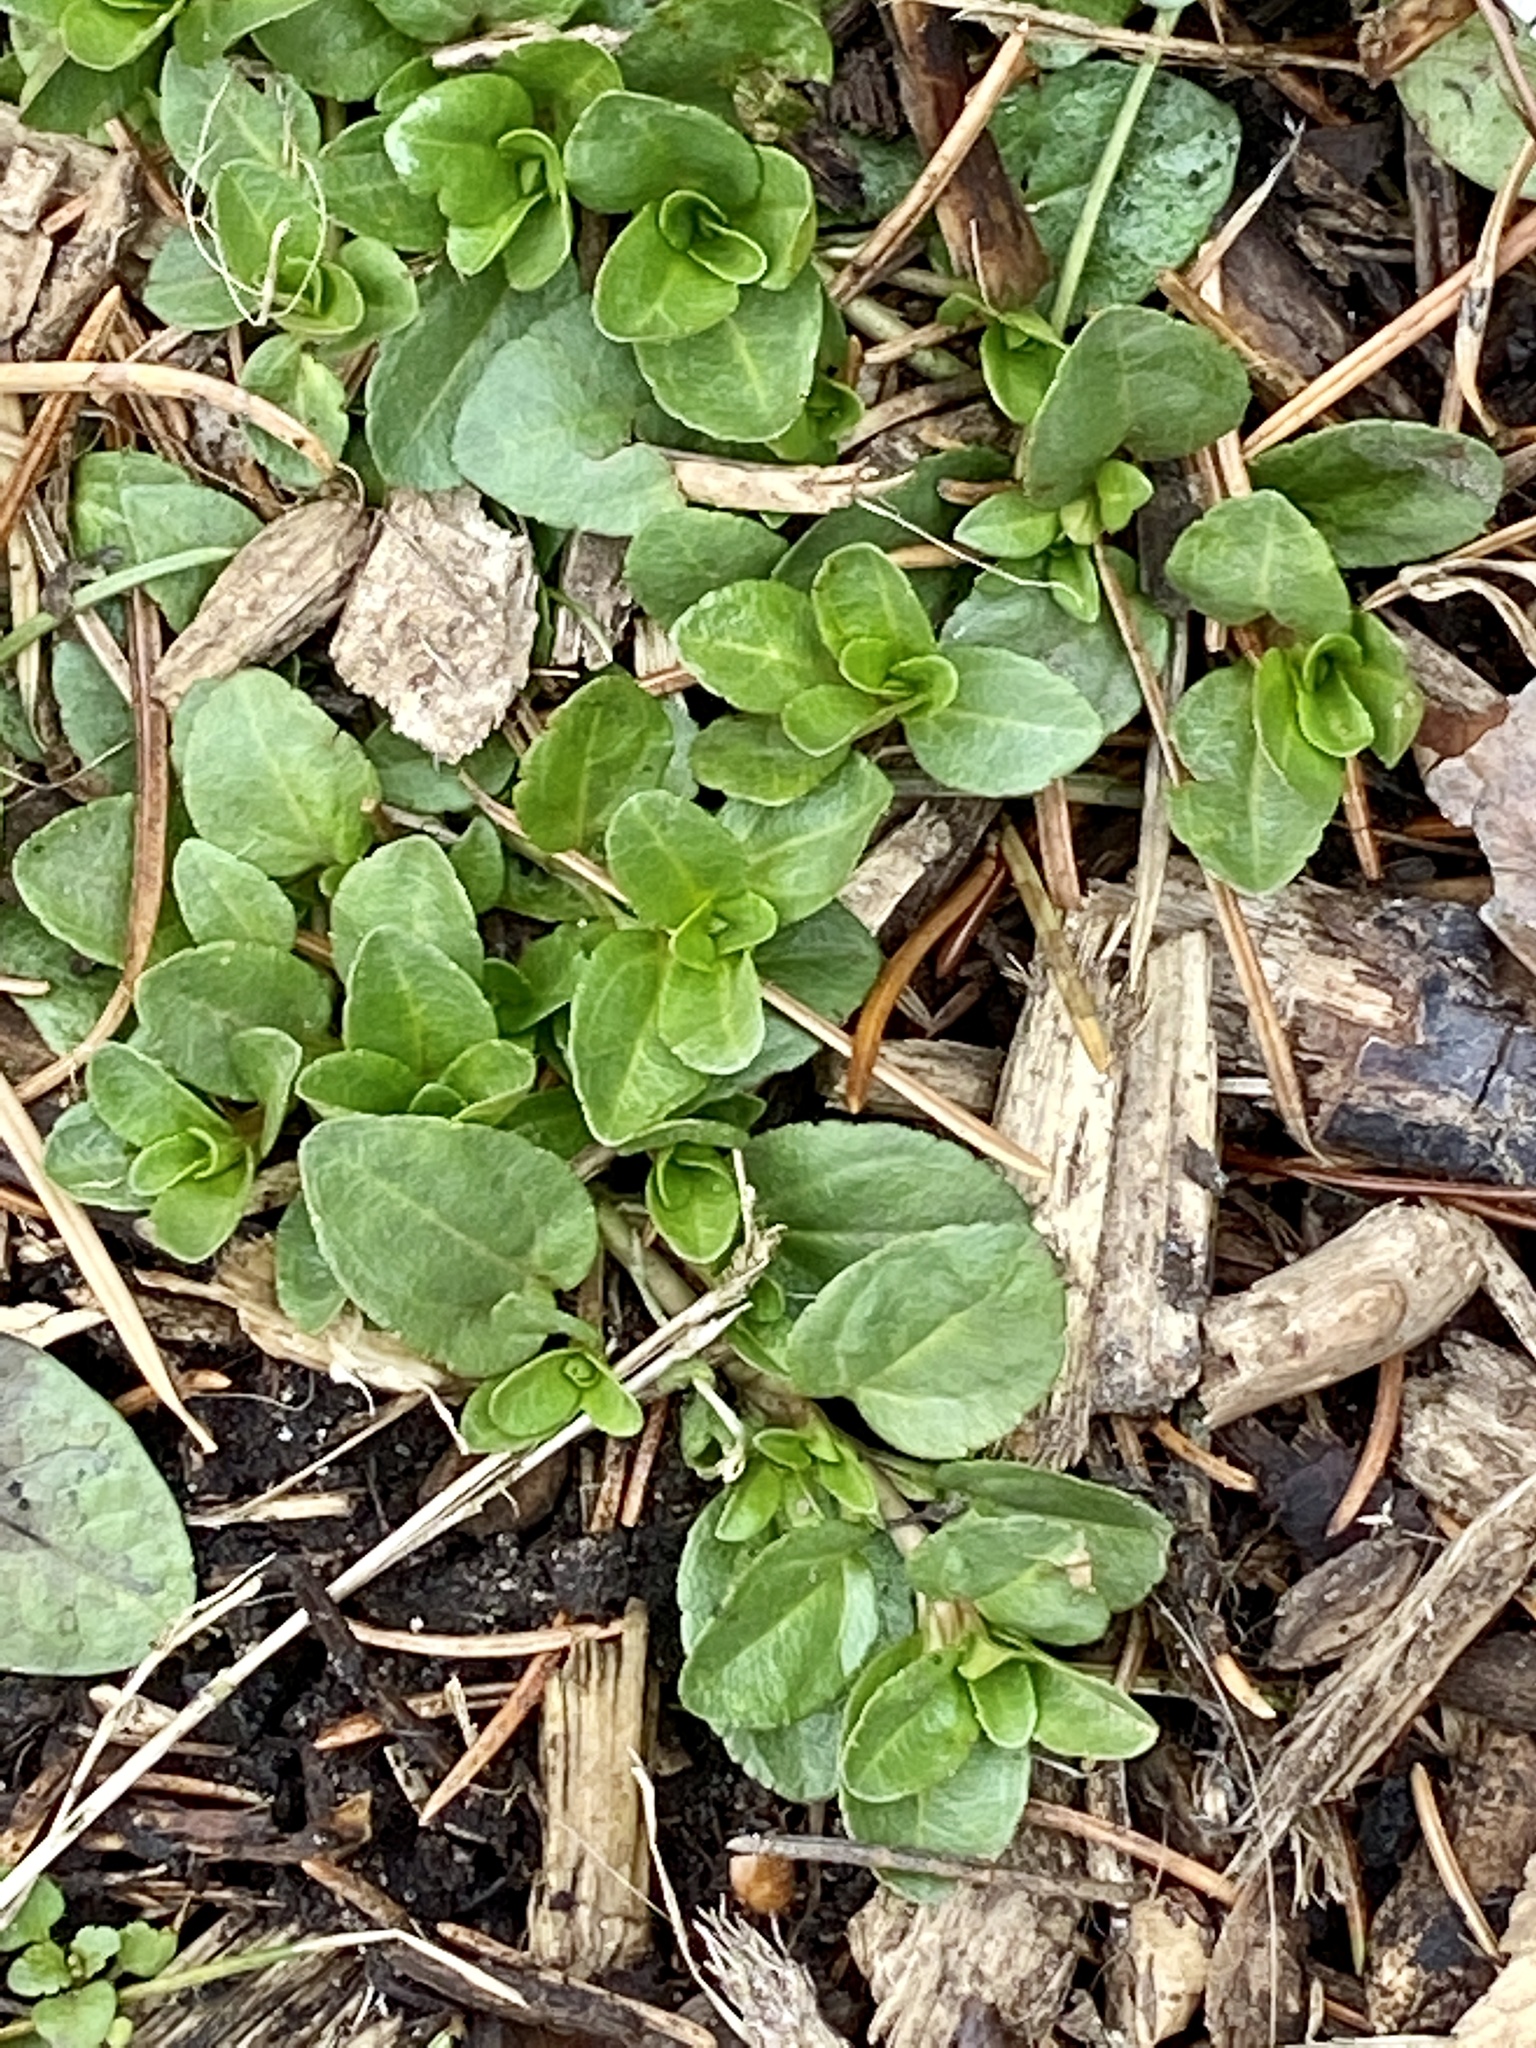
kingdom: Plantae
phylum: Tracheophyta
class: Magnoliopsida
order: Lamiales
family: Plantaginaceae
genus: Veronica
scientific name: Veronica serpyllifolia
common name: Thyme-leaved speedwell
